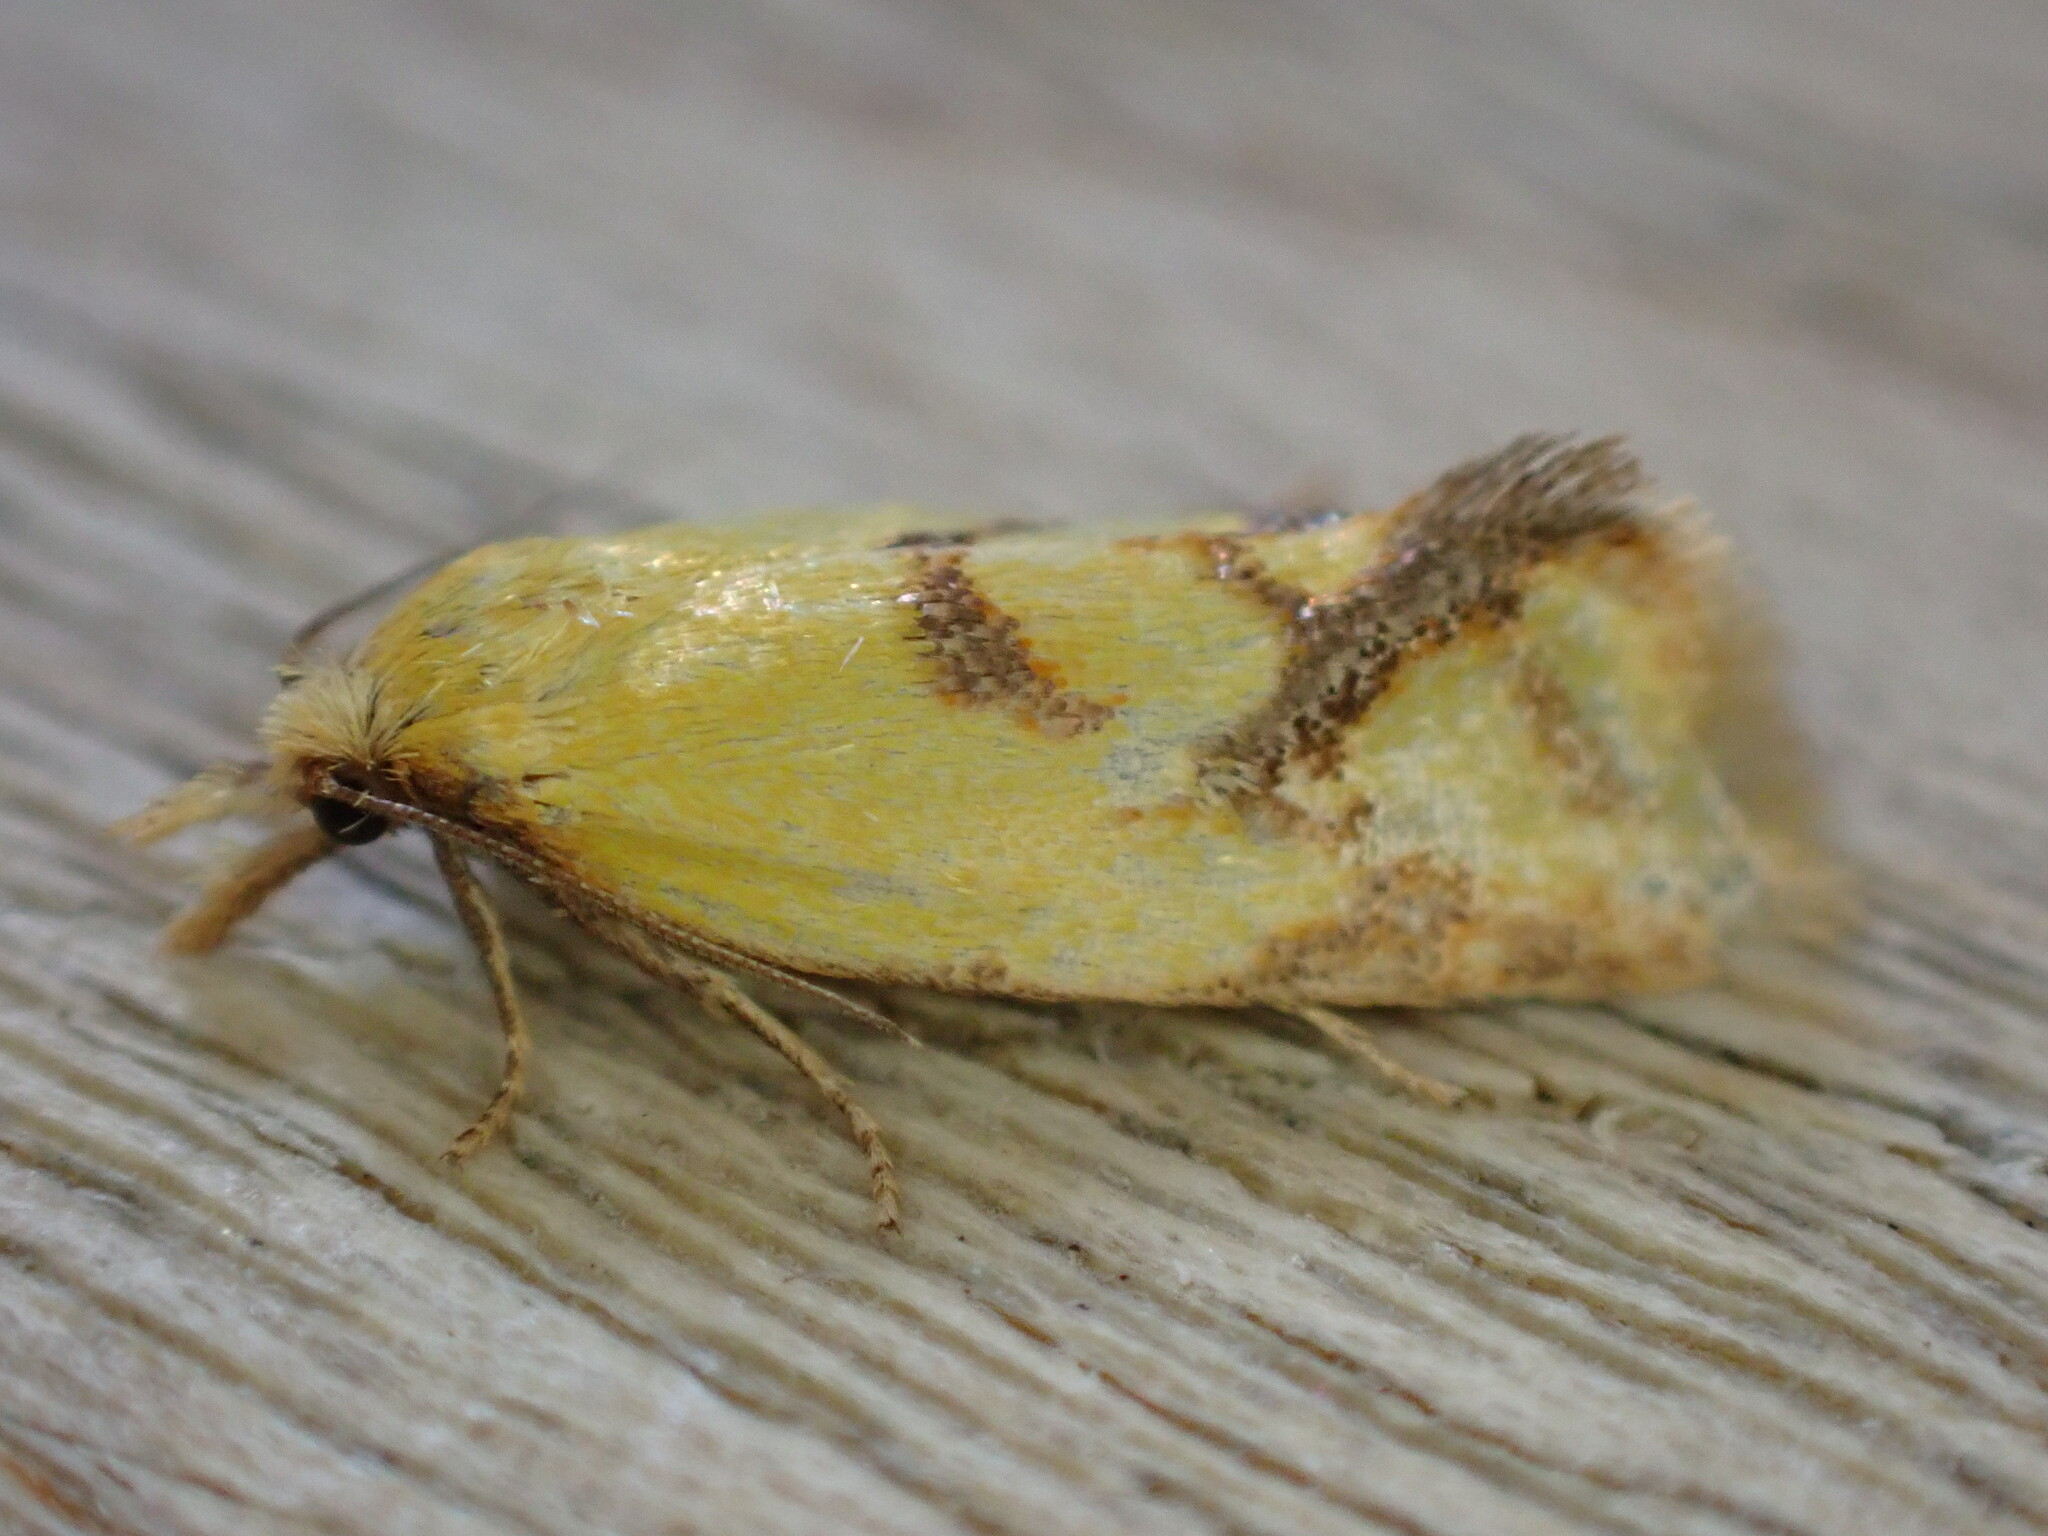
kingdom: Animalia
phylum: Arthropoda
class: Insecta
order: Lepidoptera
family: Tortricidae
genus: Agapeta
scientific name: Agapeta hamana
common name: Common yellow conch
